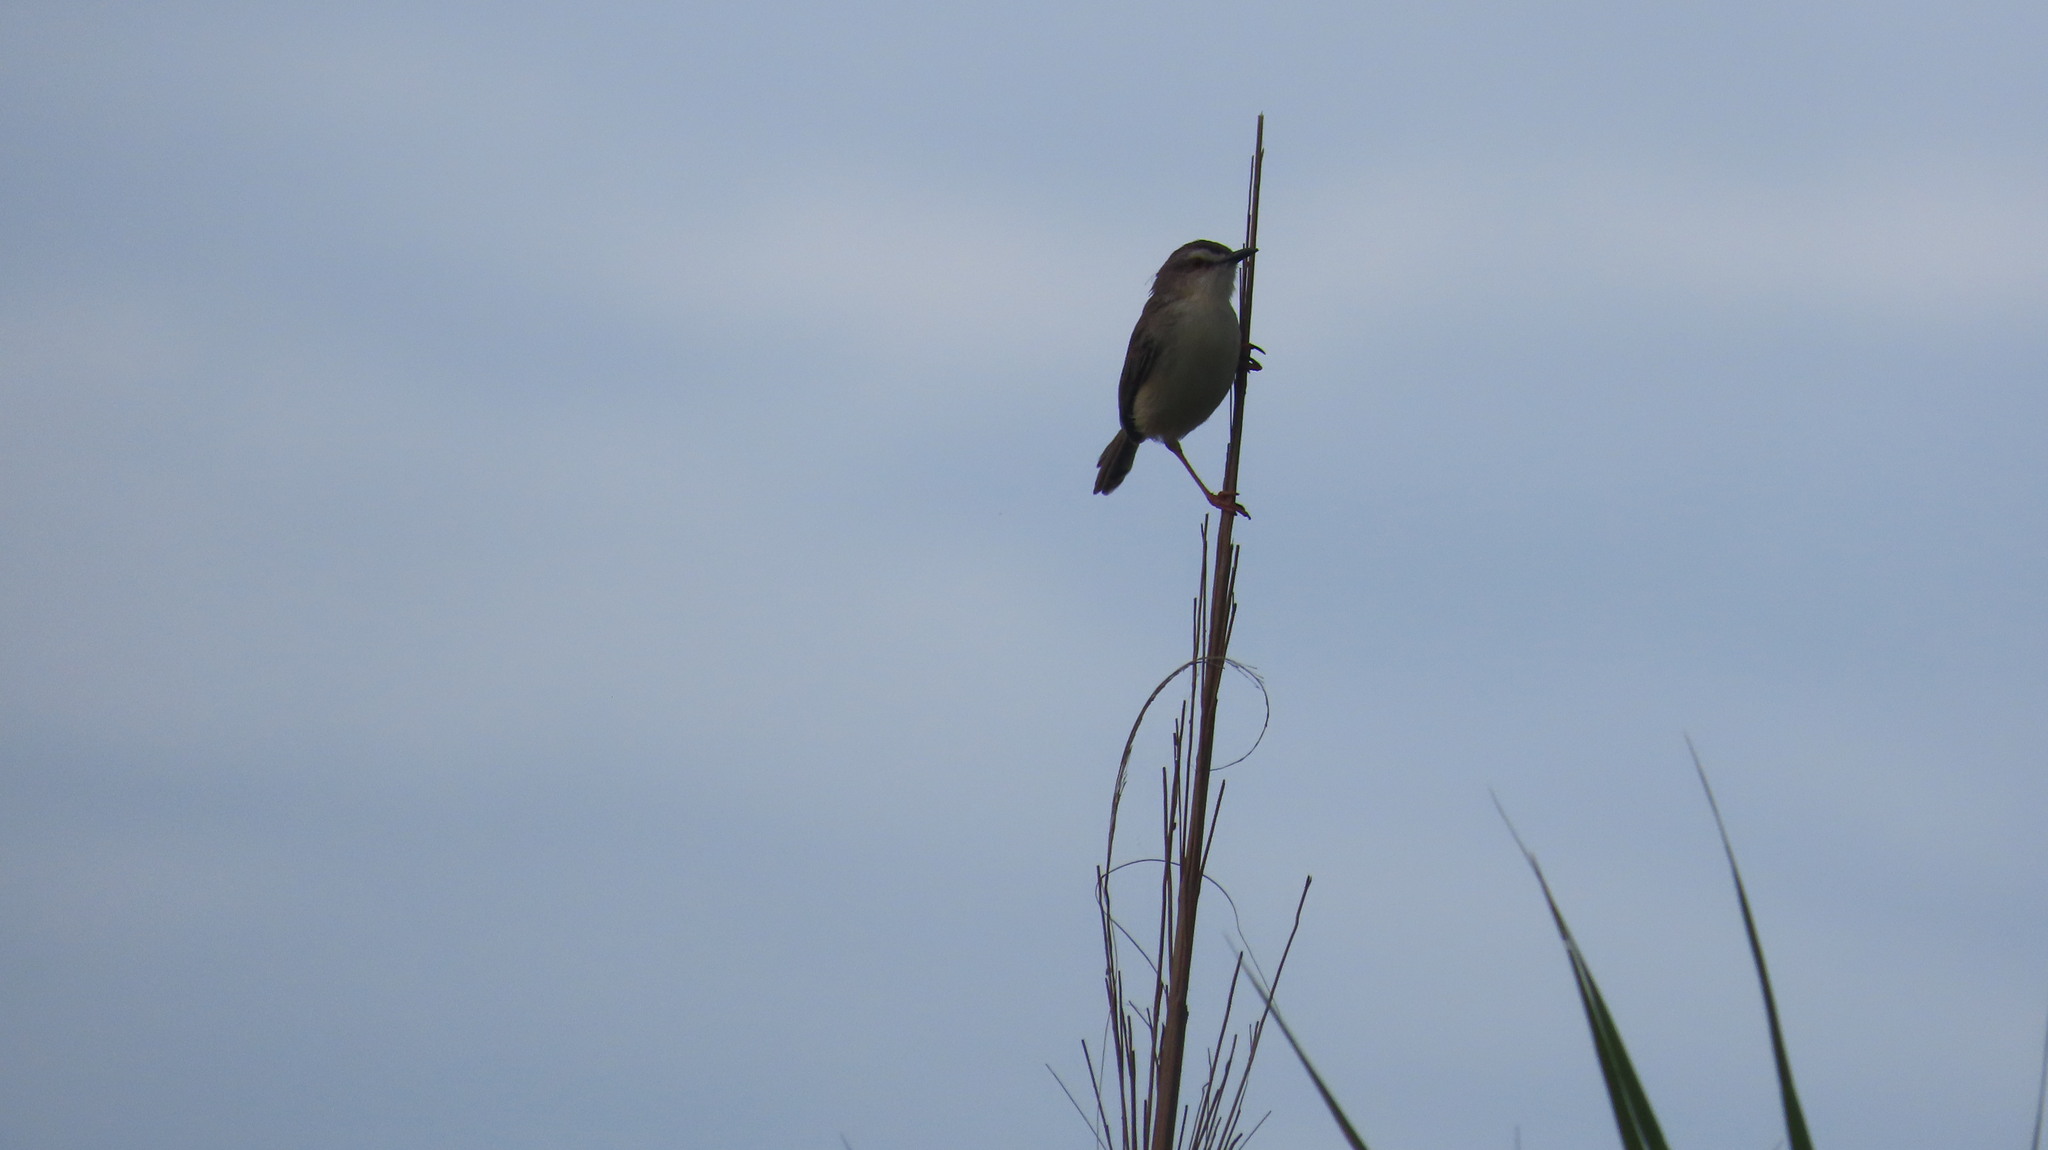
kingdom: Animalia
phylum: Chordata
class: Aves
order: Passeriformes
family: Cisticolidae
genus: Prinia
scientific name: Prinia inornata
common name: Plain prinia
